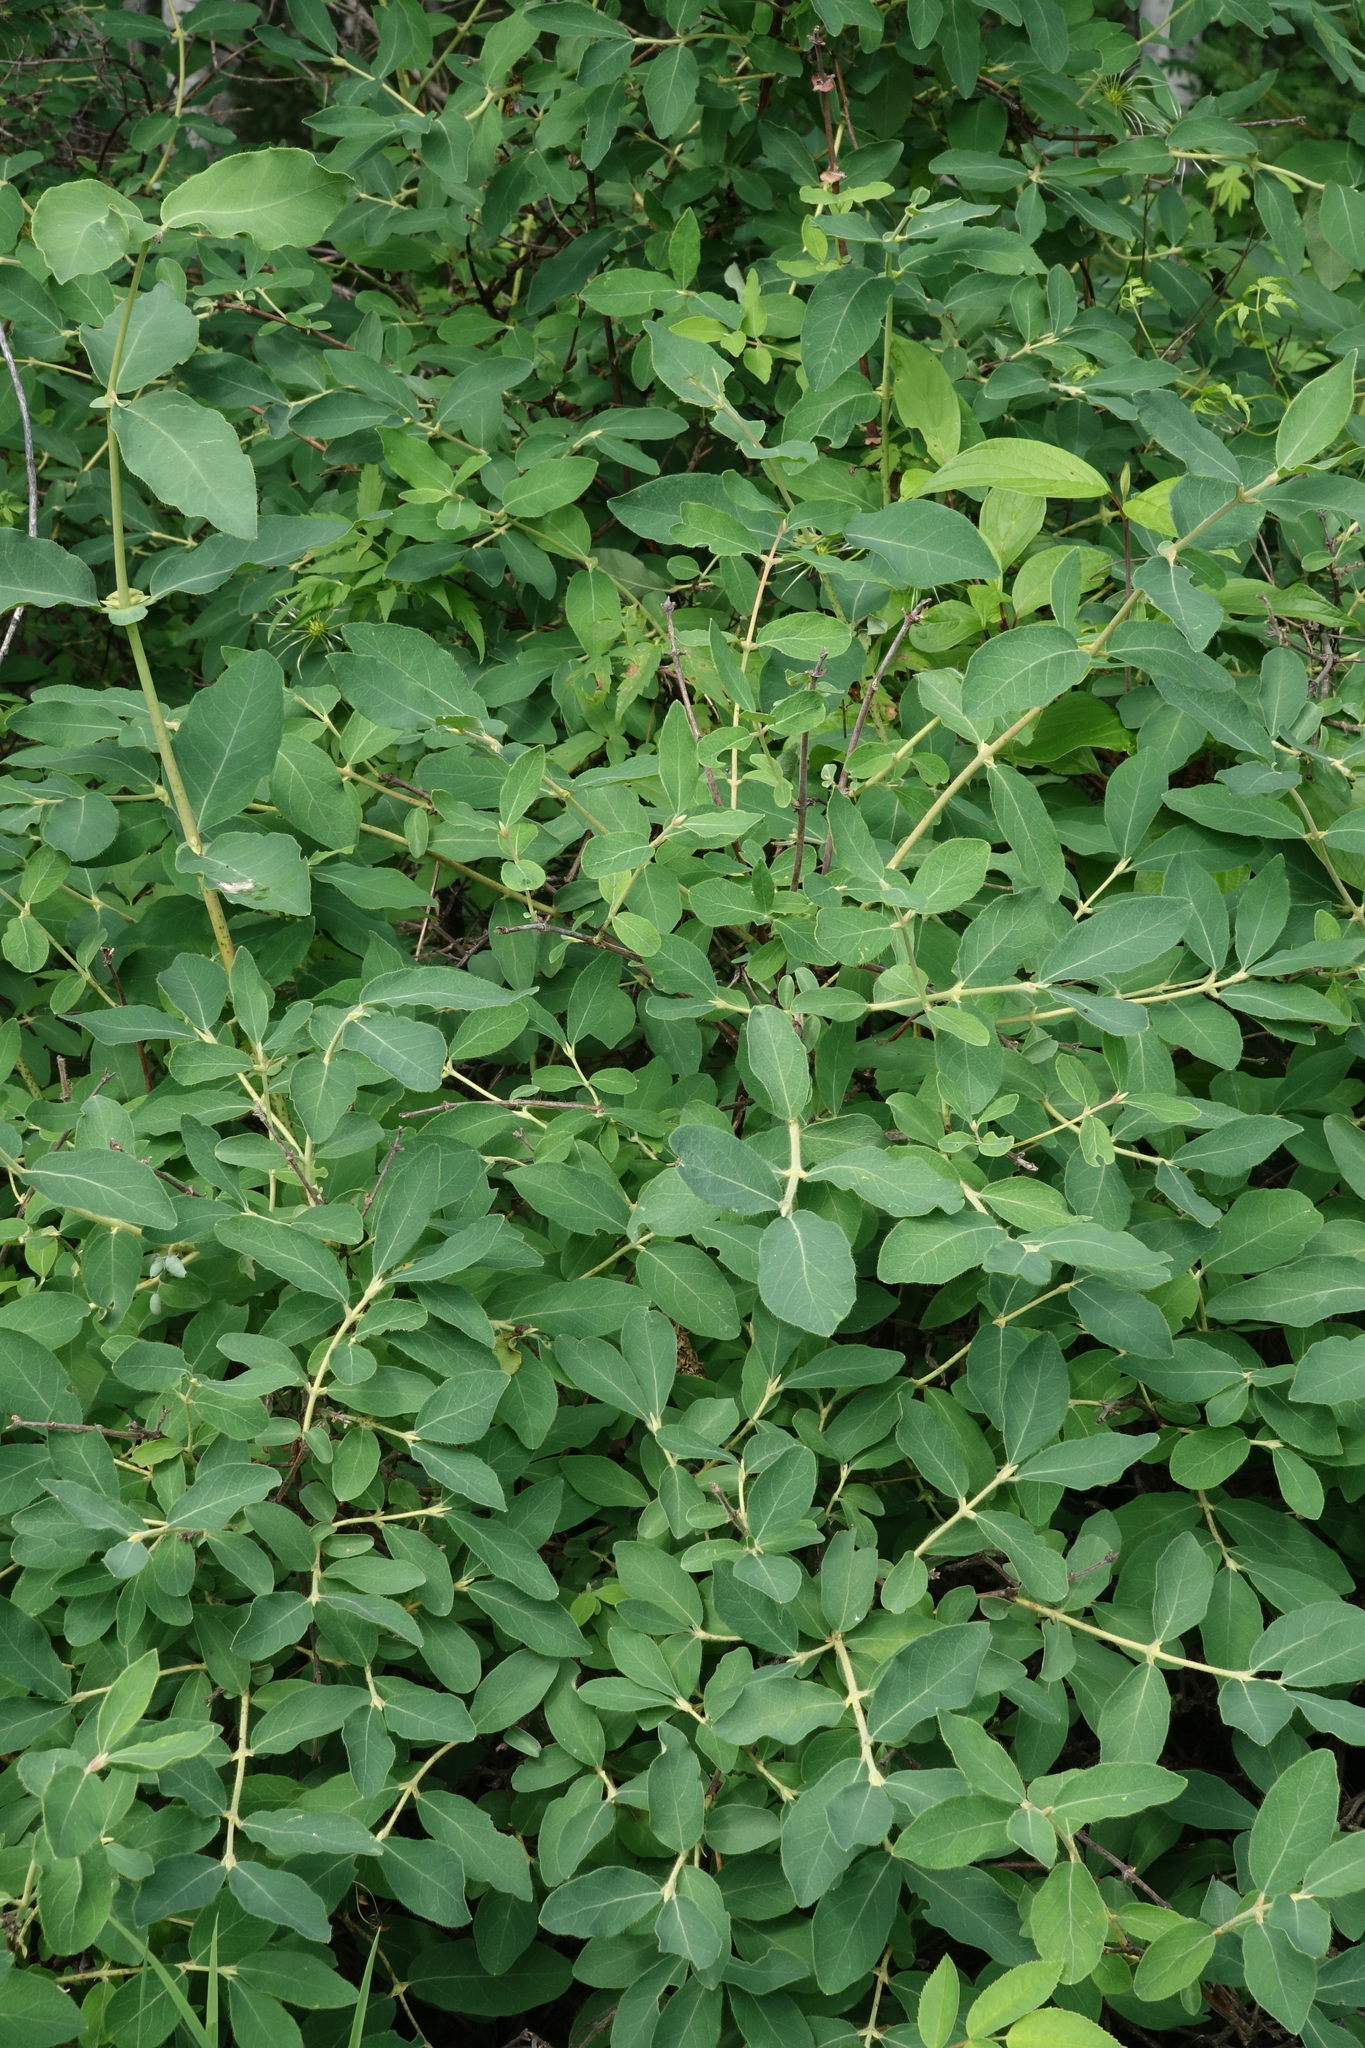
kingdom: Plantae
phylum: Tracheophyta
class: Magnoliopsida
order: Dipsacales
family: Caprifoliaceae
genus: Lonicera
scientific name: Lonicera caerulea
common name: Blue honeysuckle
